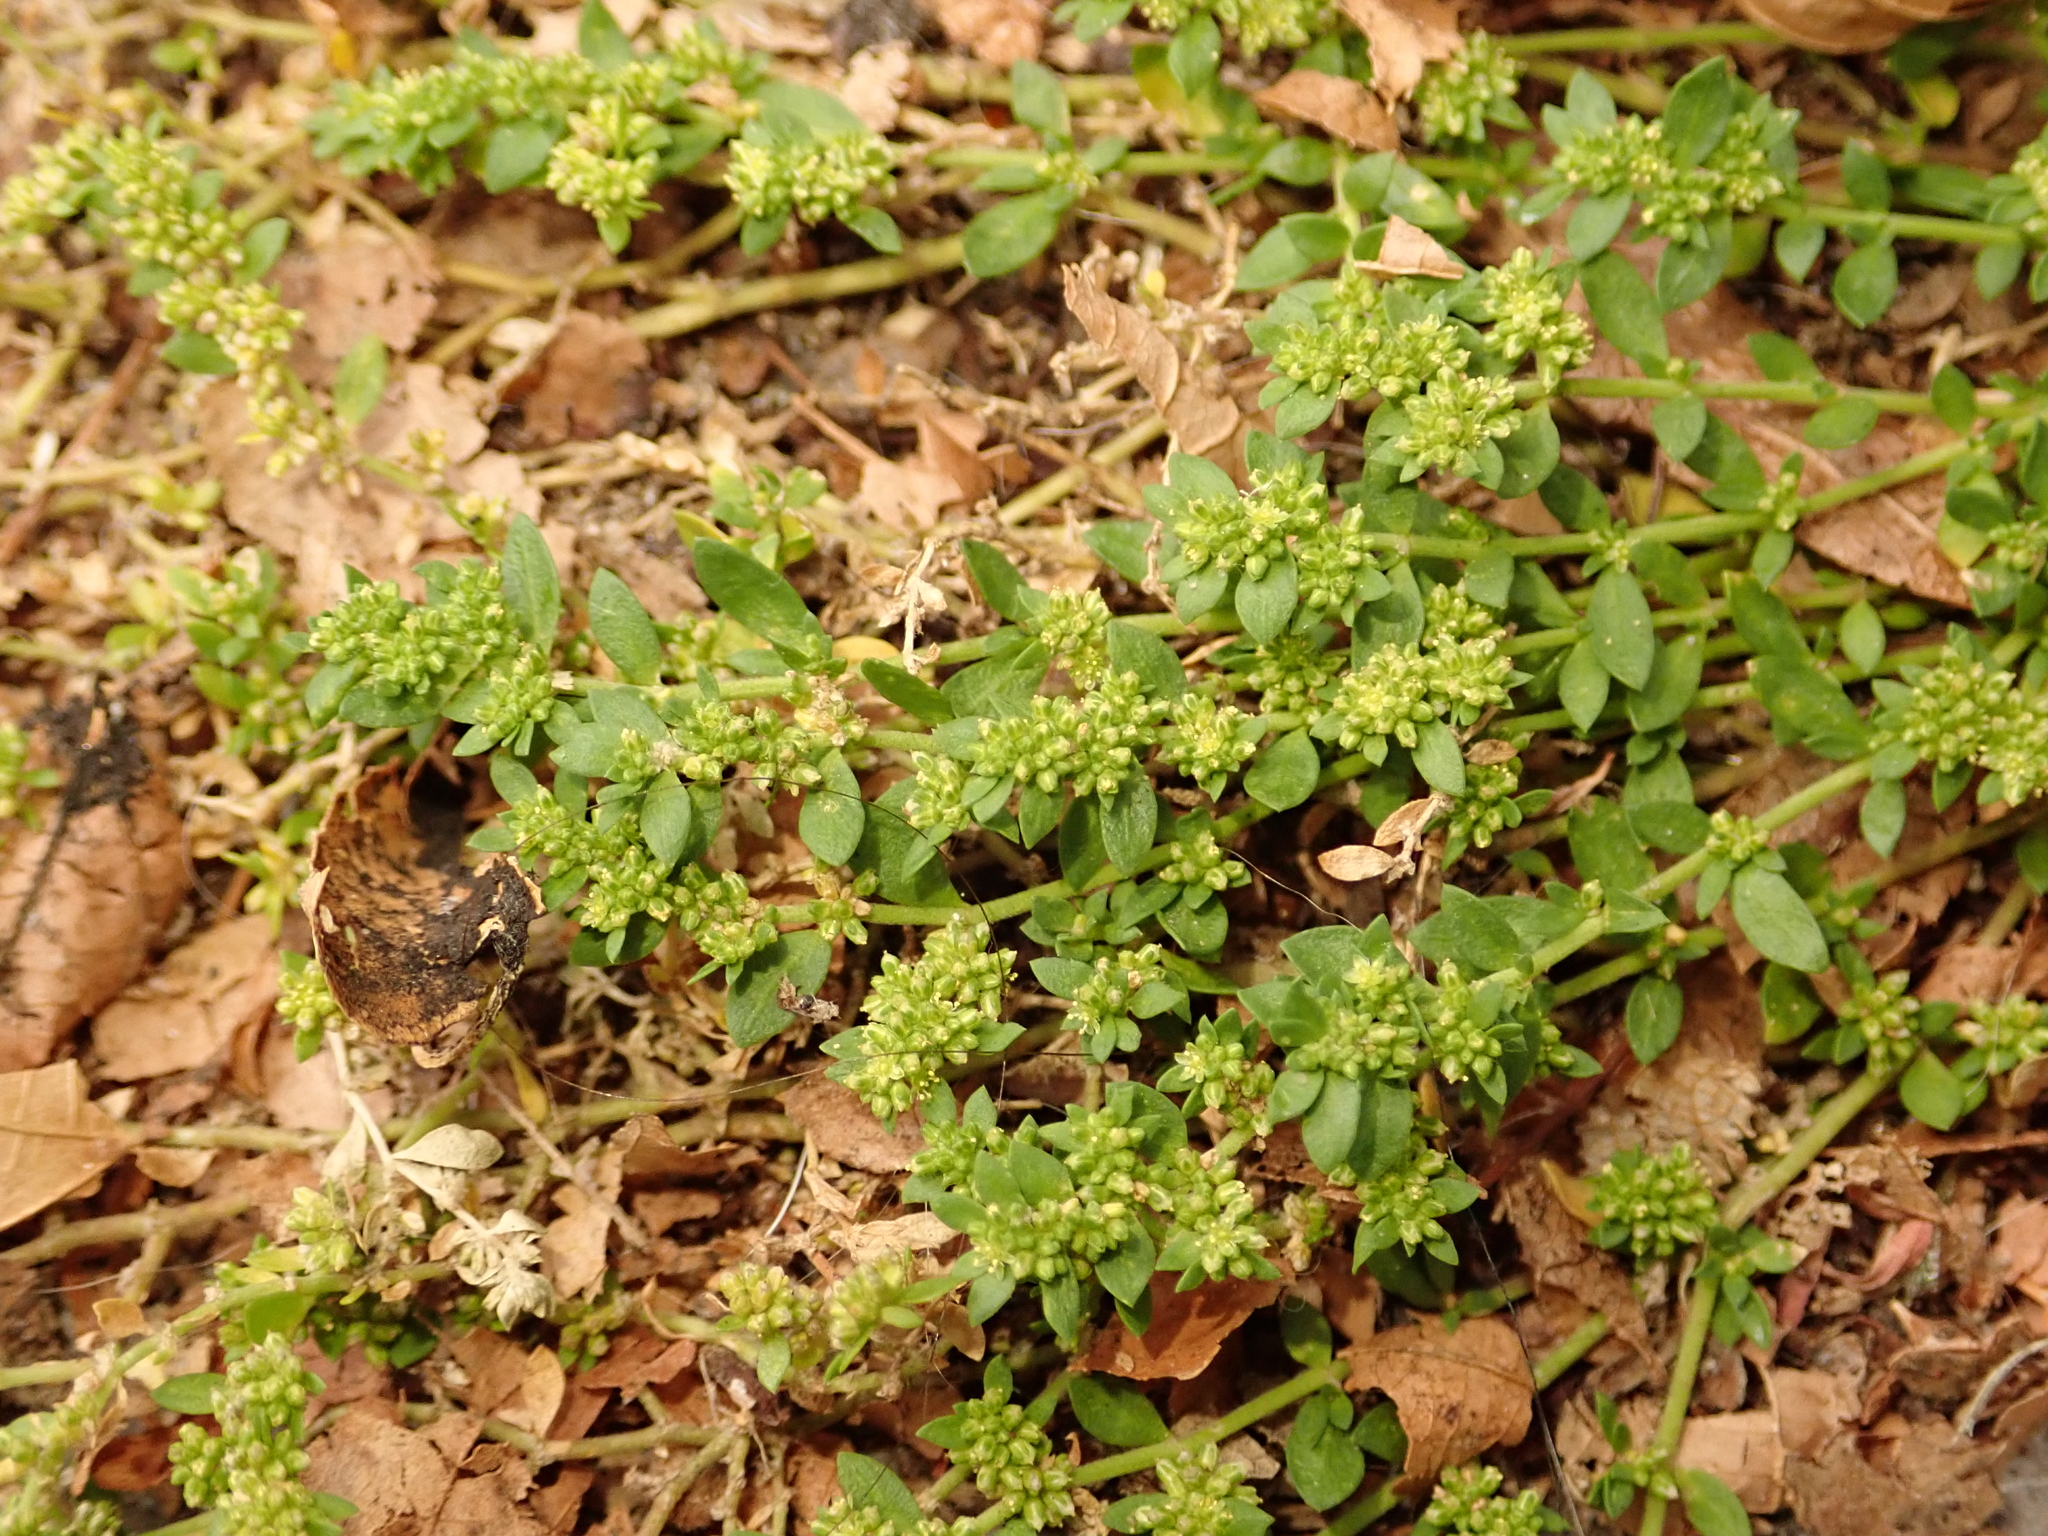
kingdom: Plantae
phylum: Tracheophyta
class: Magnoliopsida
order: Caryophyllales
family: Caryophyllaceae
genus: Herniaria
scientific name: Herniaria glabra
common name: Smooth rupturewort
